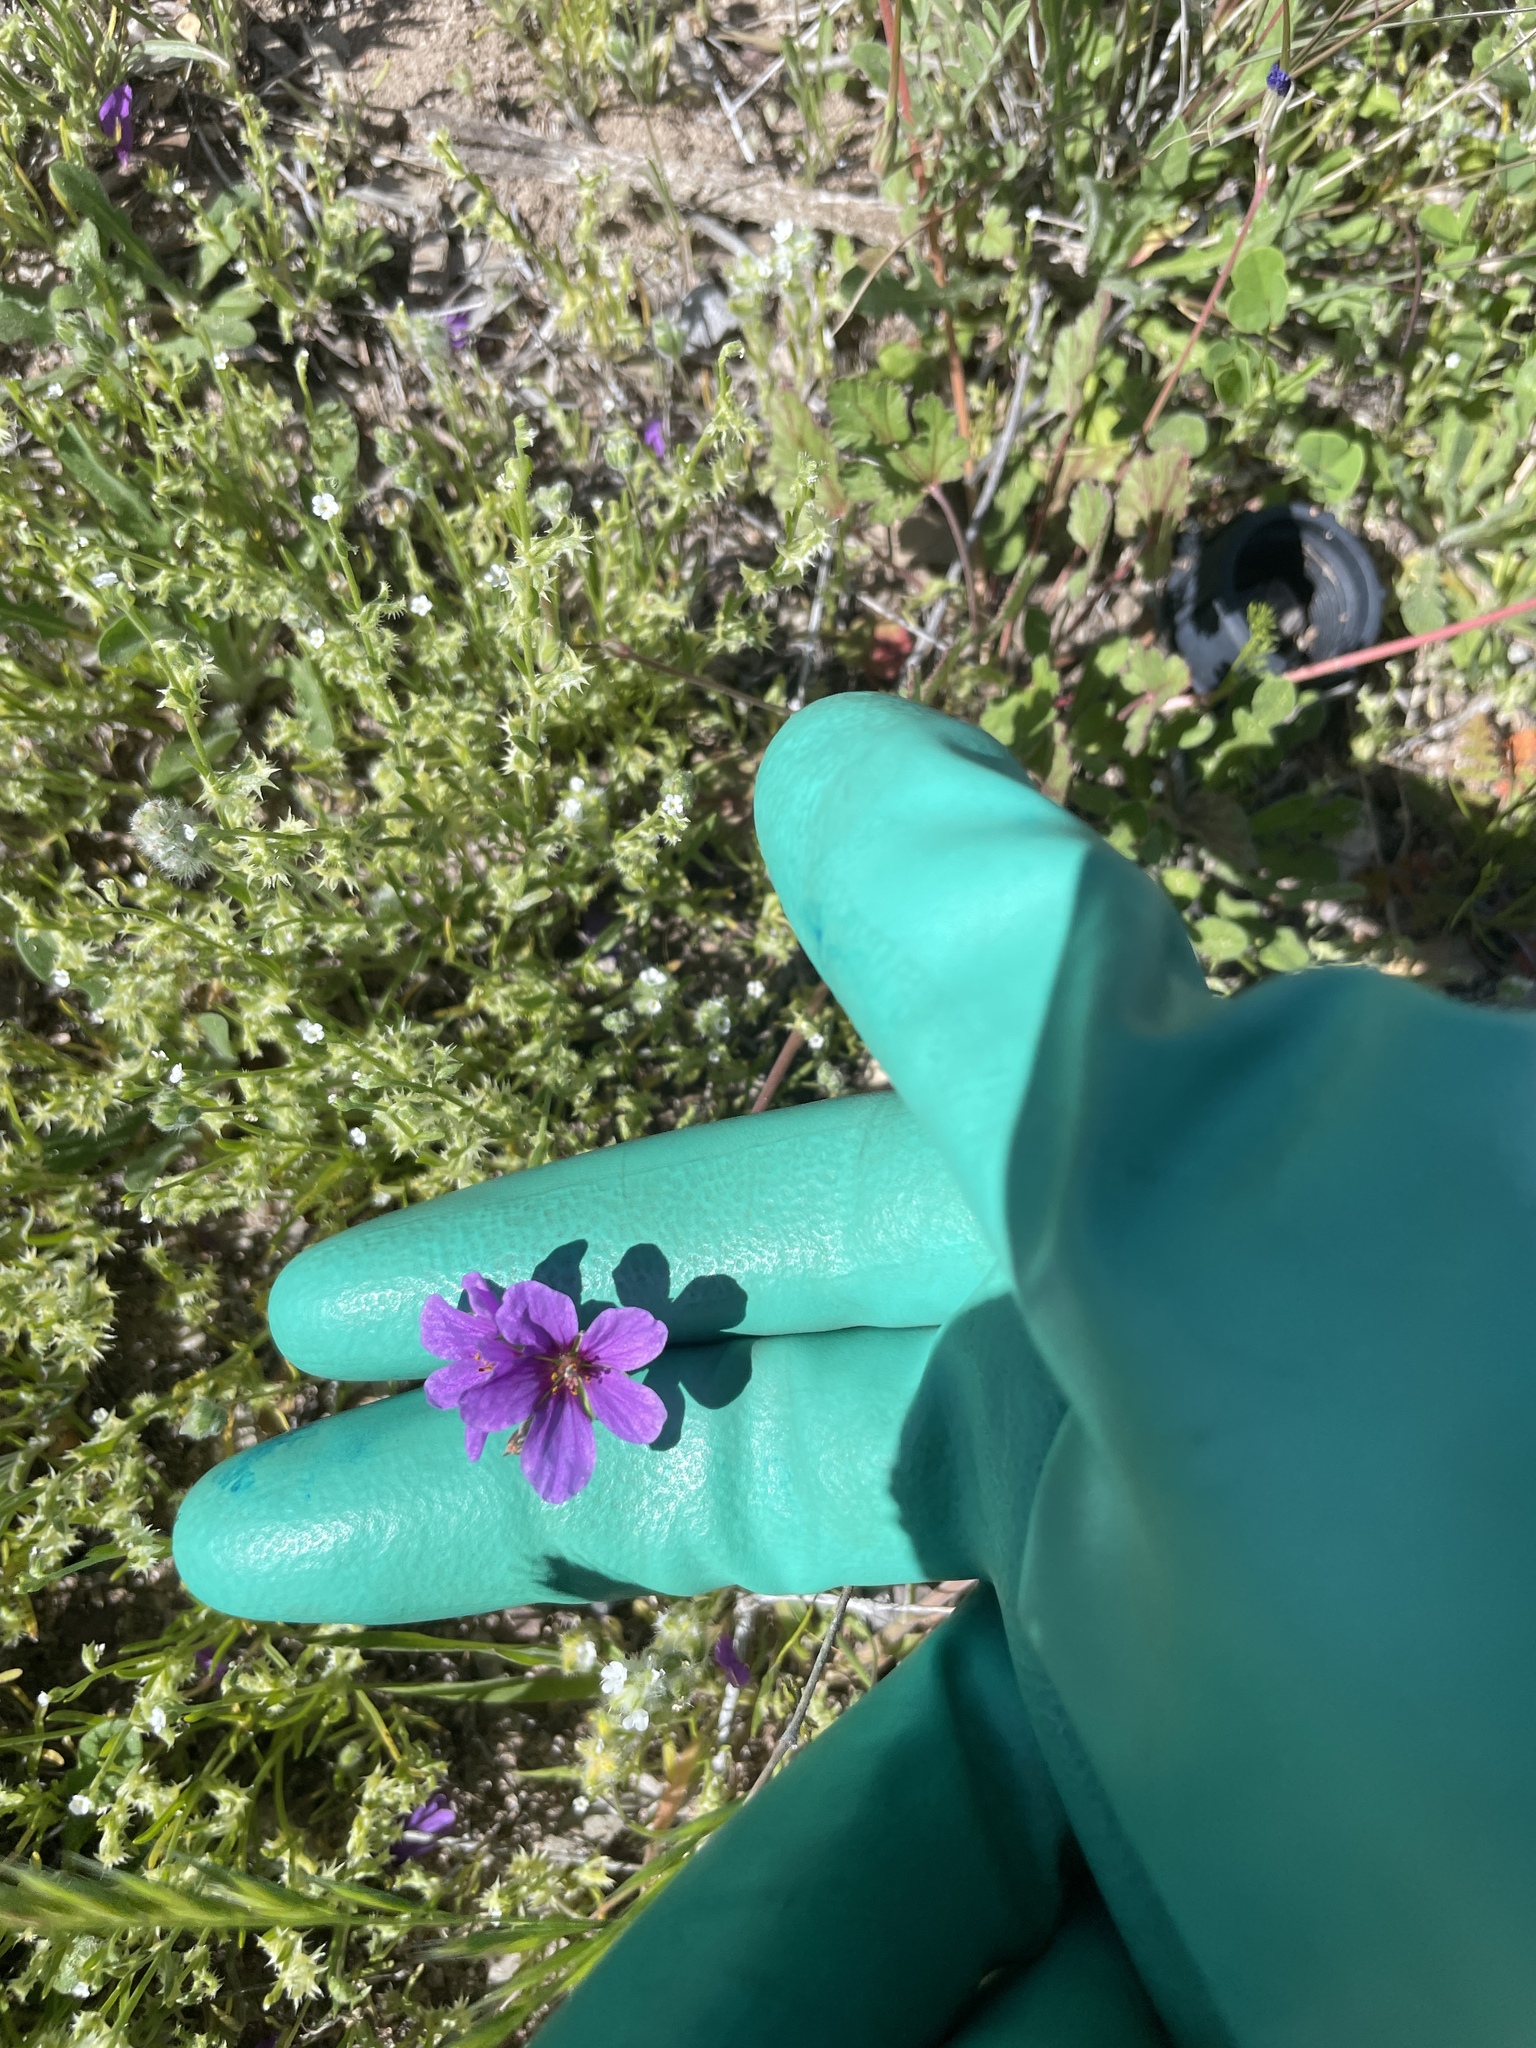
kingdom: Plantae
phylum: Tracheophyta
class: Magnoliopsida
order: Geraniales
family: Geraniaceae
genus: Erodium
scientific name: Erodium texanum
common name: Texas stork's-bill
